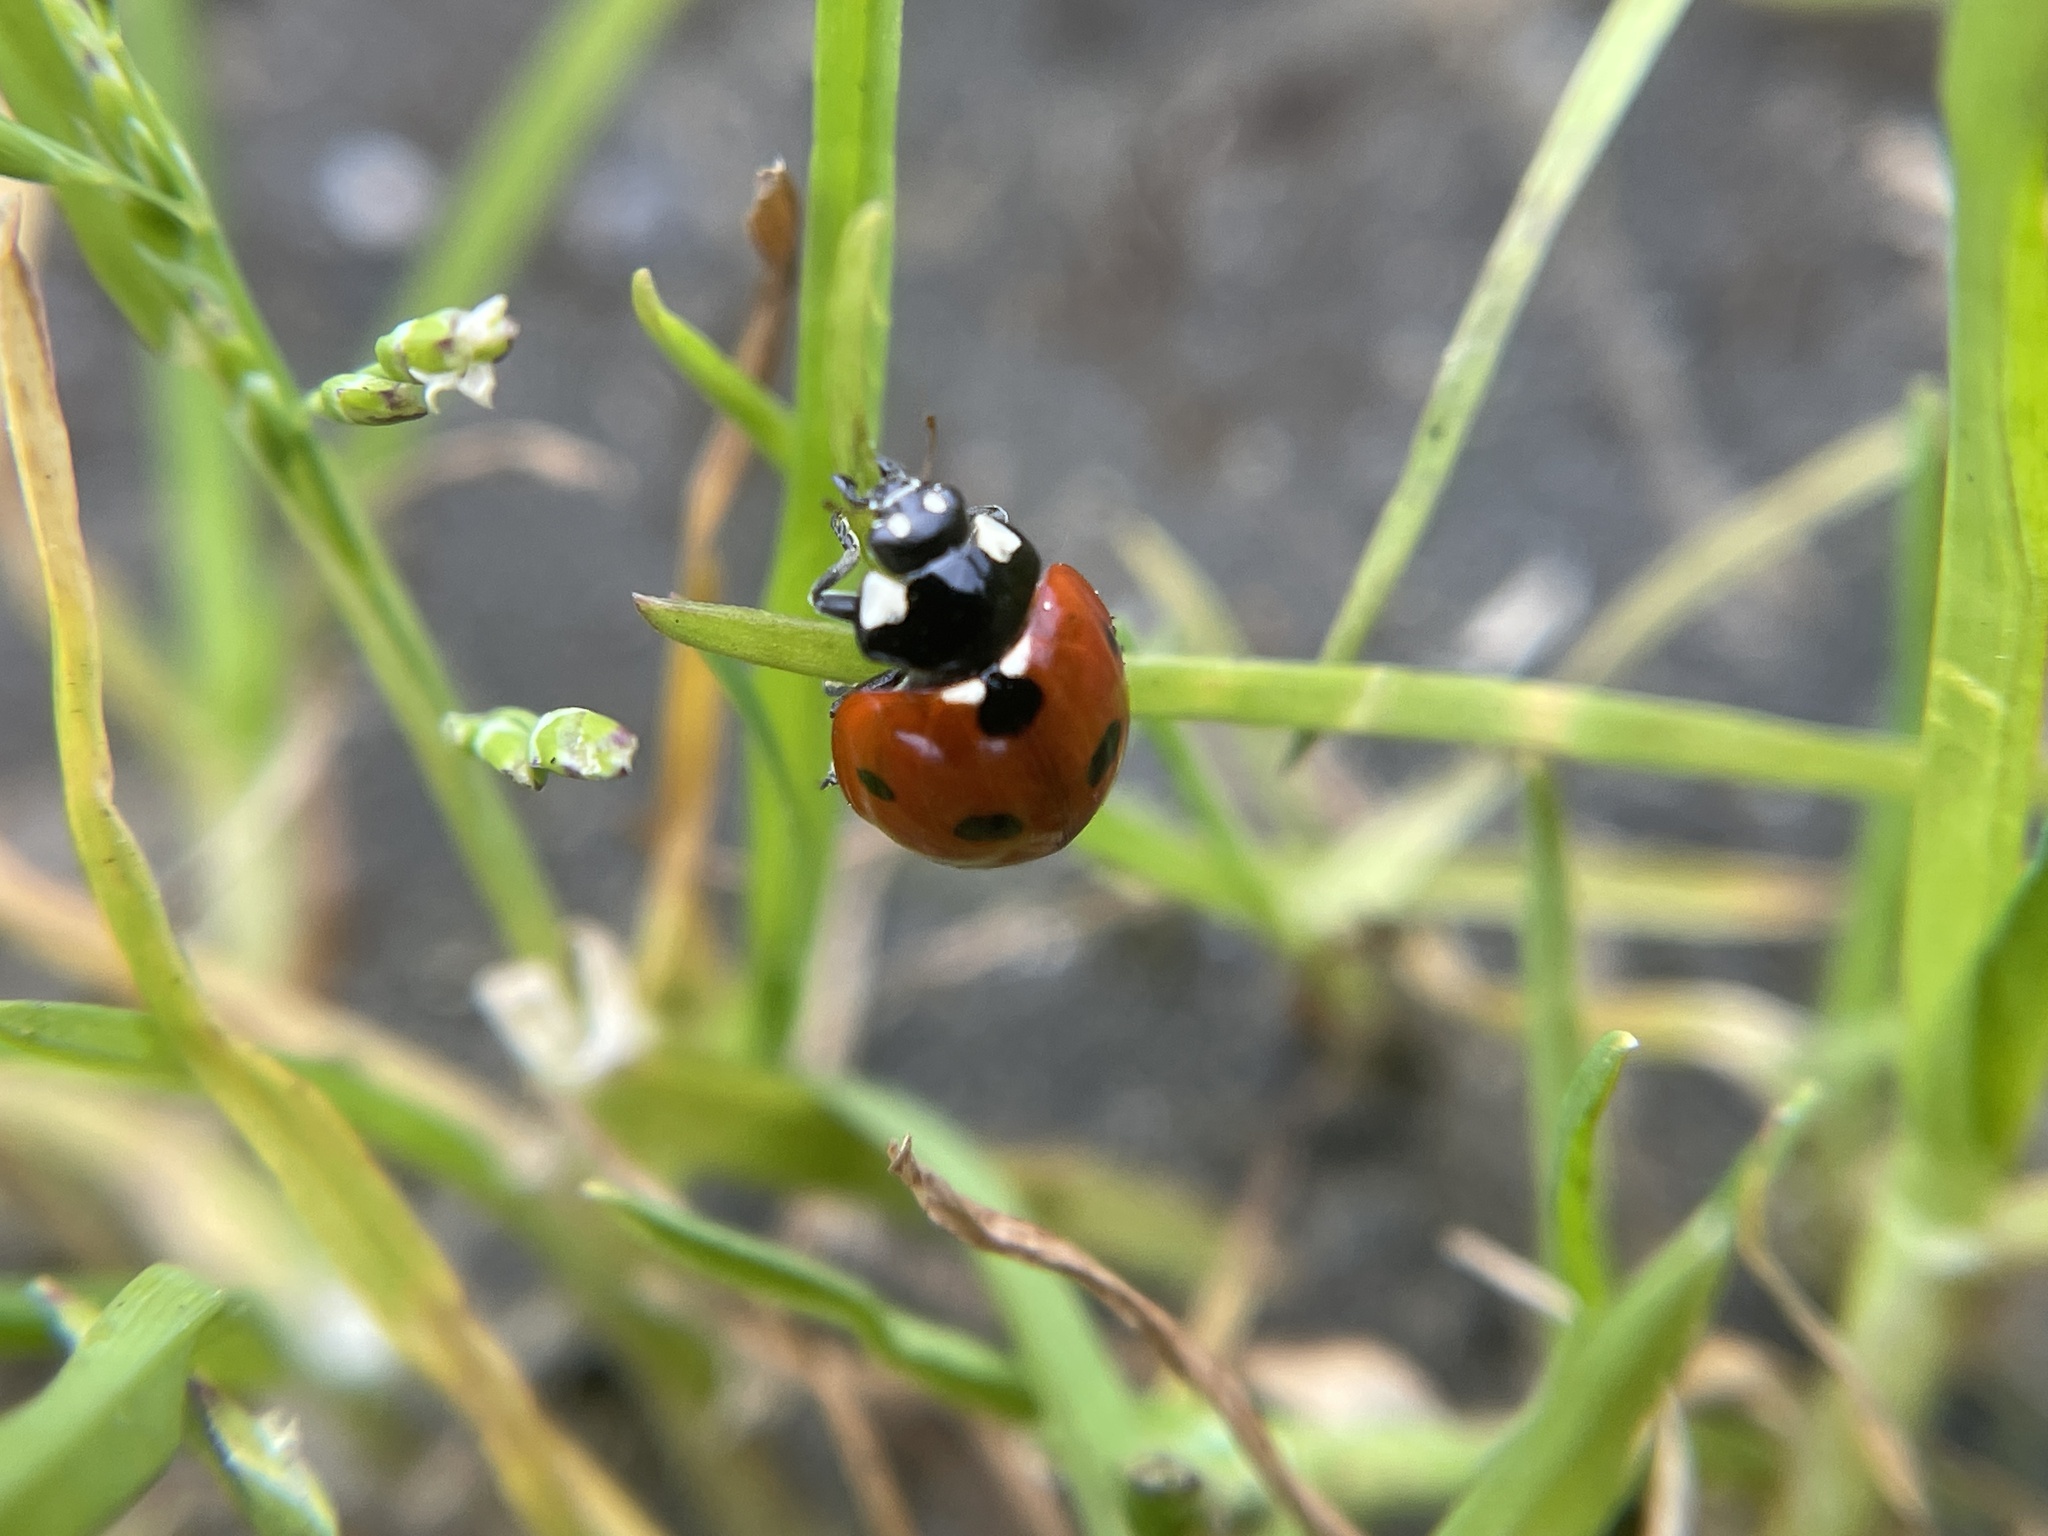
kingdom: Animalia
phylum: Arthropoda
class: Insecta
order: Coleoptera
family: Coccinellidae
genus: Coccinella
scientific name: Coccinella septempunctata
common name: Sevenspotted lady beetle
